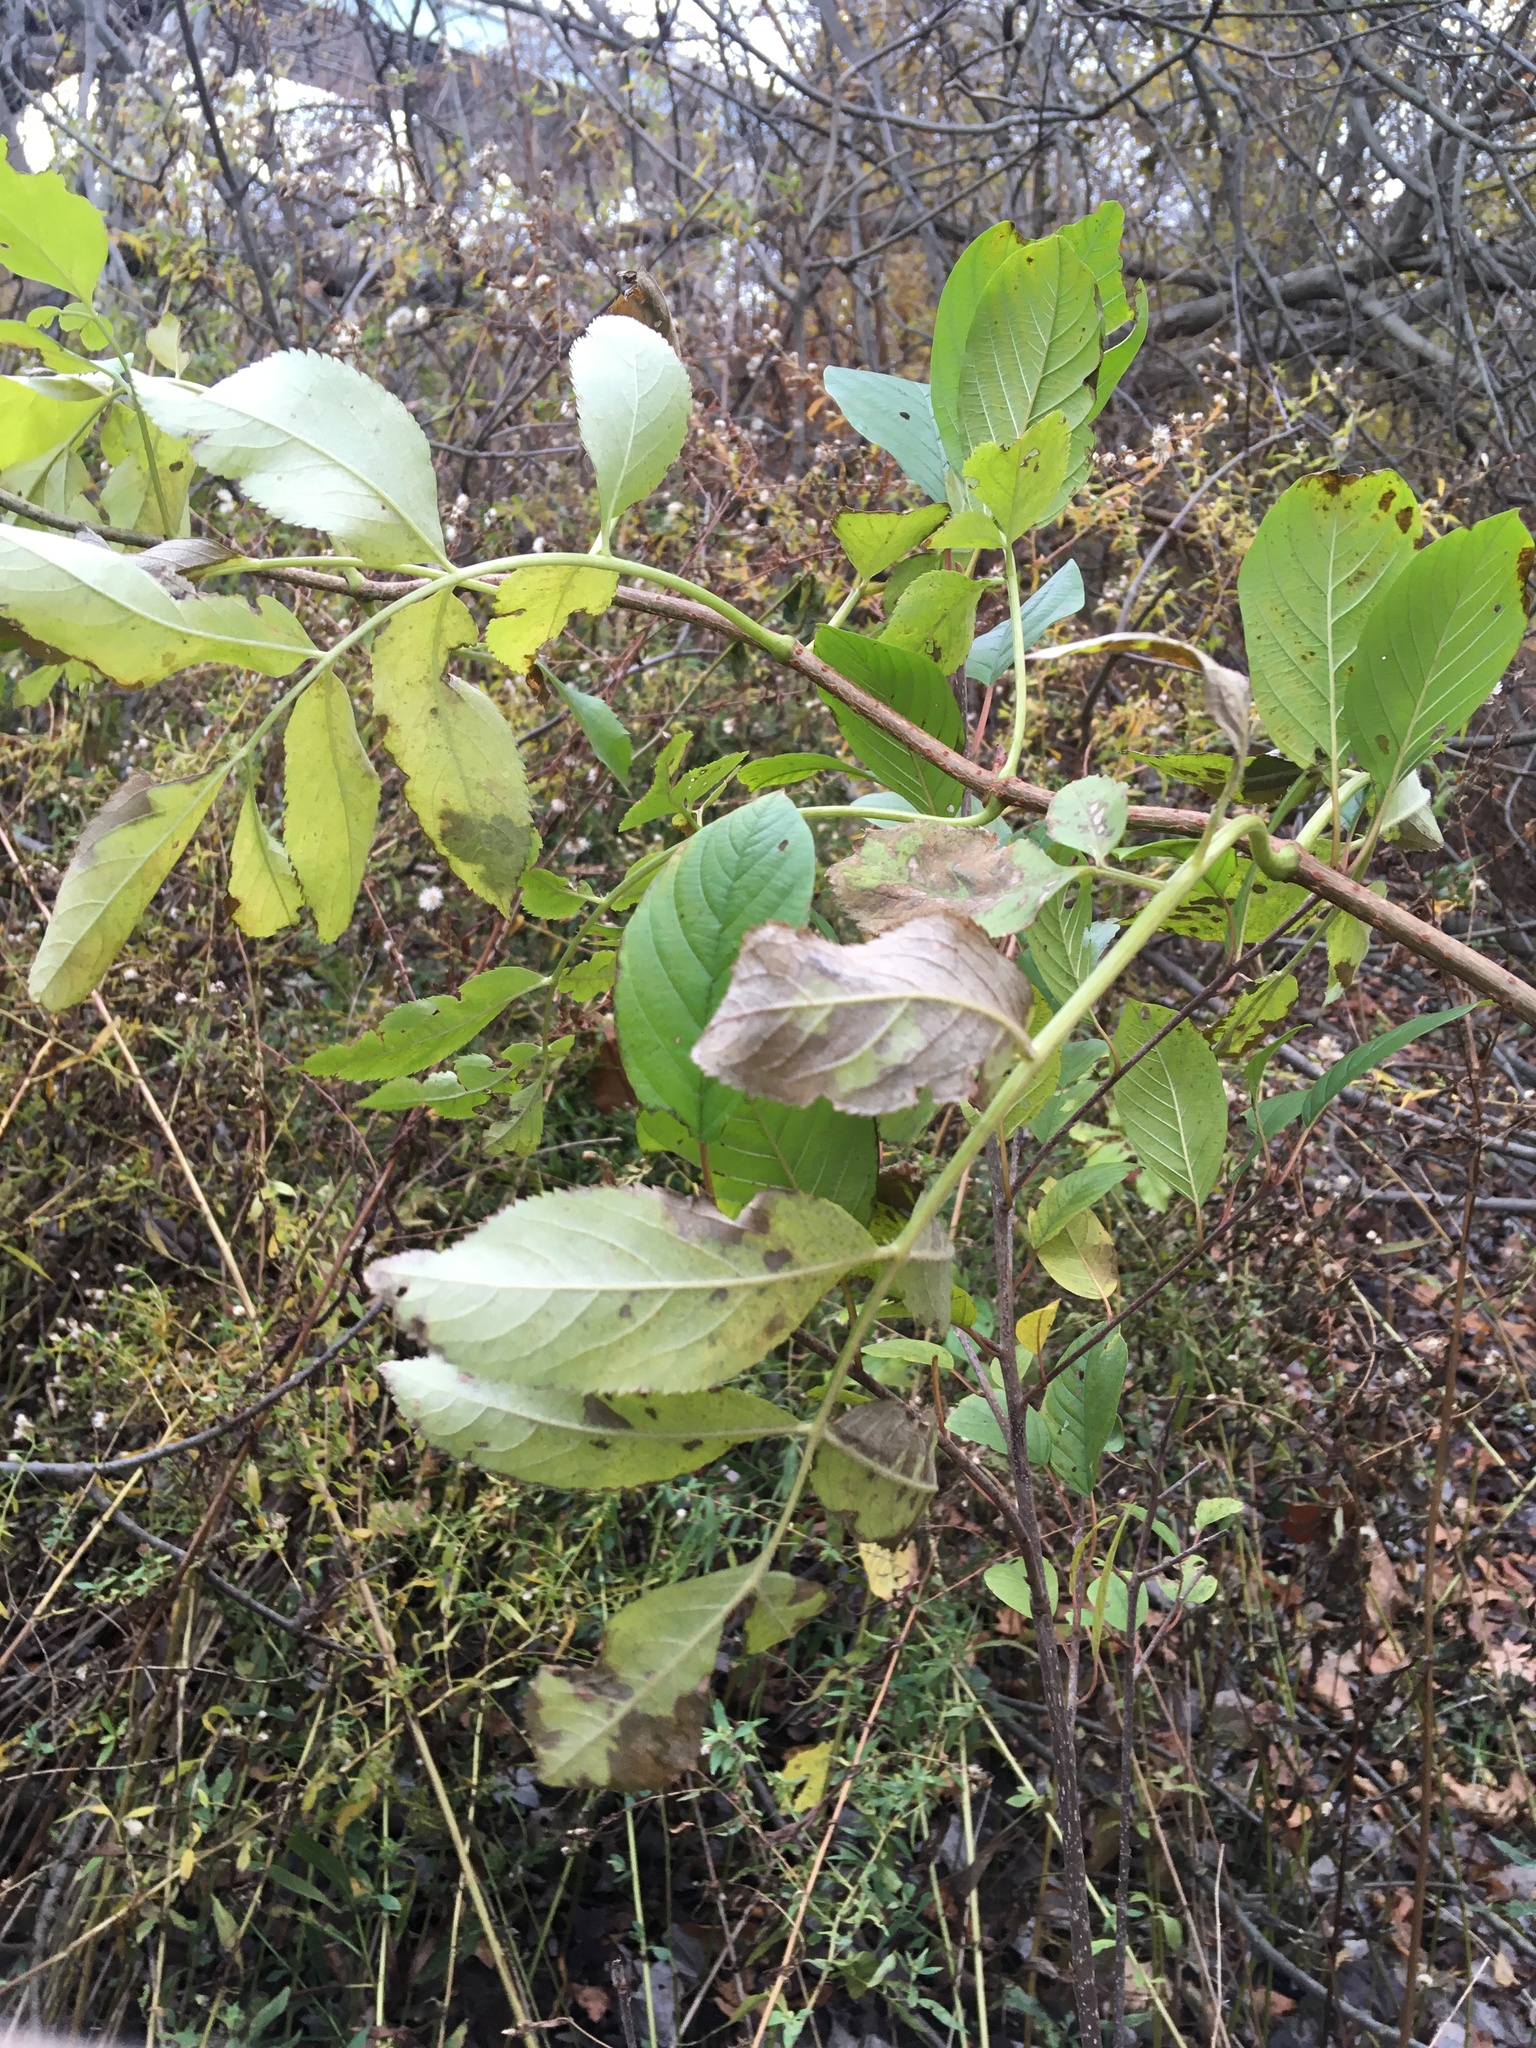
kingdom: Plantae
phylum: Tracheophyta
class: Magnoliopsida
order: Dipsacales
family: Viburnaceae
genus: Sambucus
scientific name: Sambucus canadensis
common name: American elder
